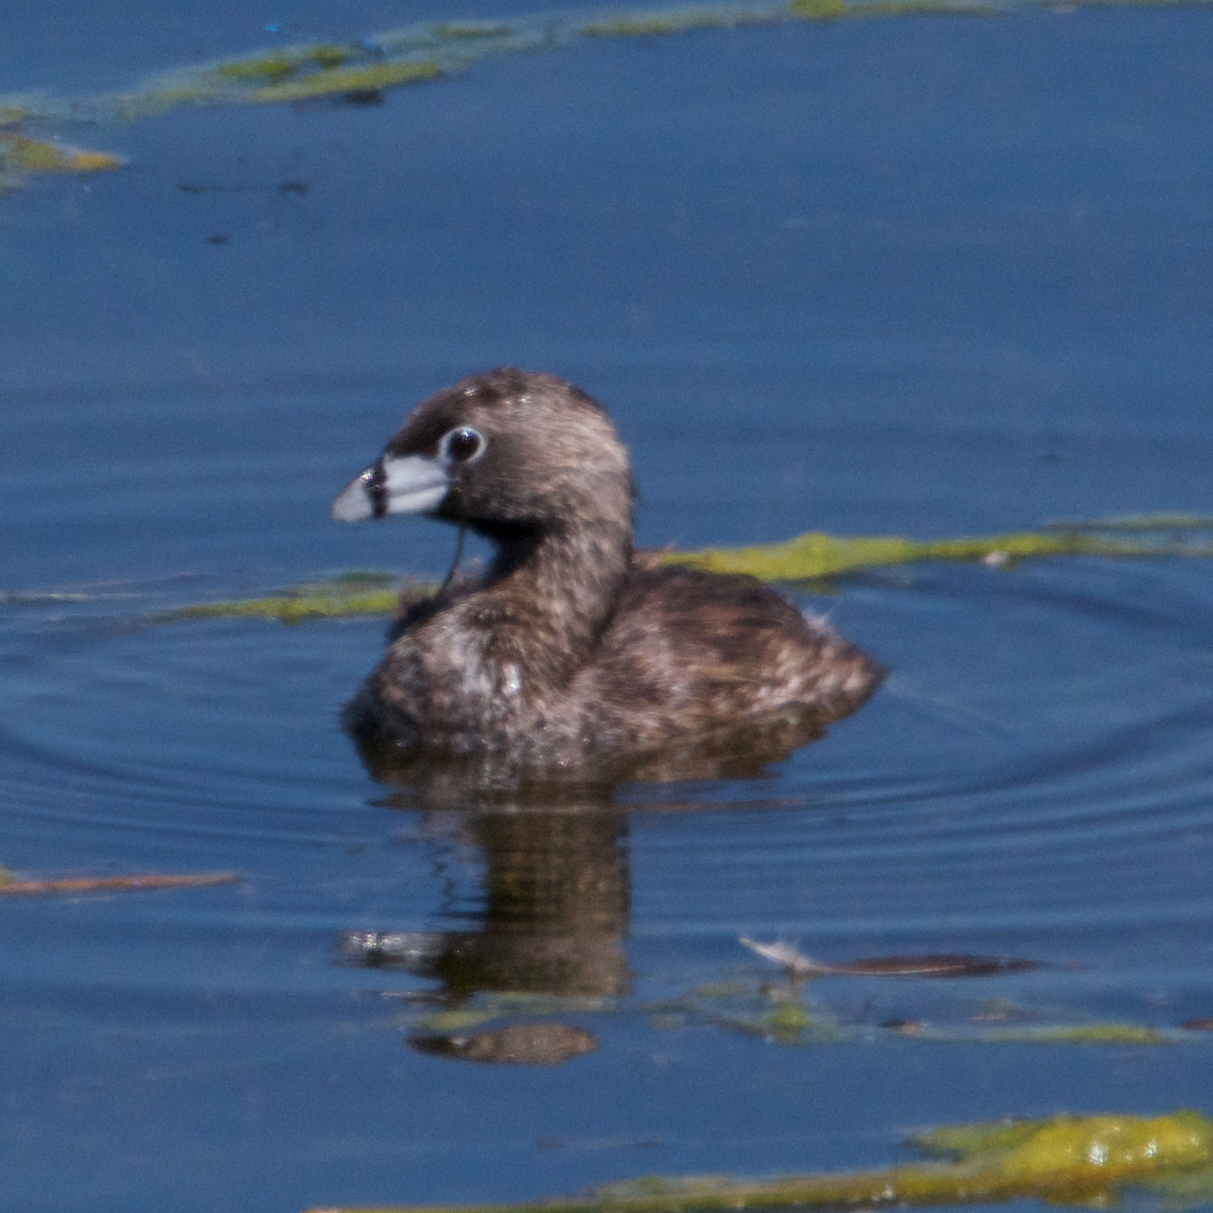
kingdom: Animalia
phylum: Chordata
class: Aves
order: Podicipediformes
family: Podicipedidae
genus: Podilymbus
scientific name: Podilymbus podiceps
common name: Pied-billed grebe
